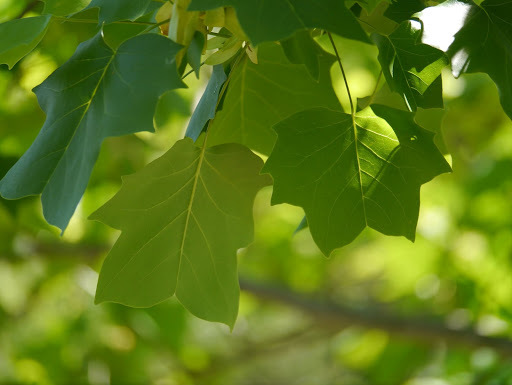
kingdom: Plantae
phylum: Tracheophyta
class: Magnoliopsida
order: Magnoliales
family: Magnoliaceae
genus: Liriodendron
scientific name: Liriodendron tulipifera
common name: Tulip tree
